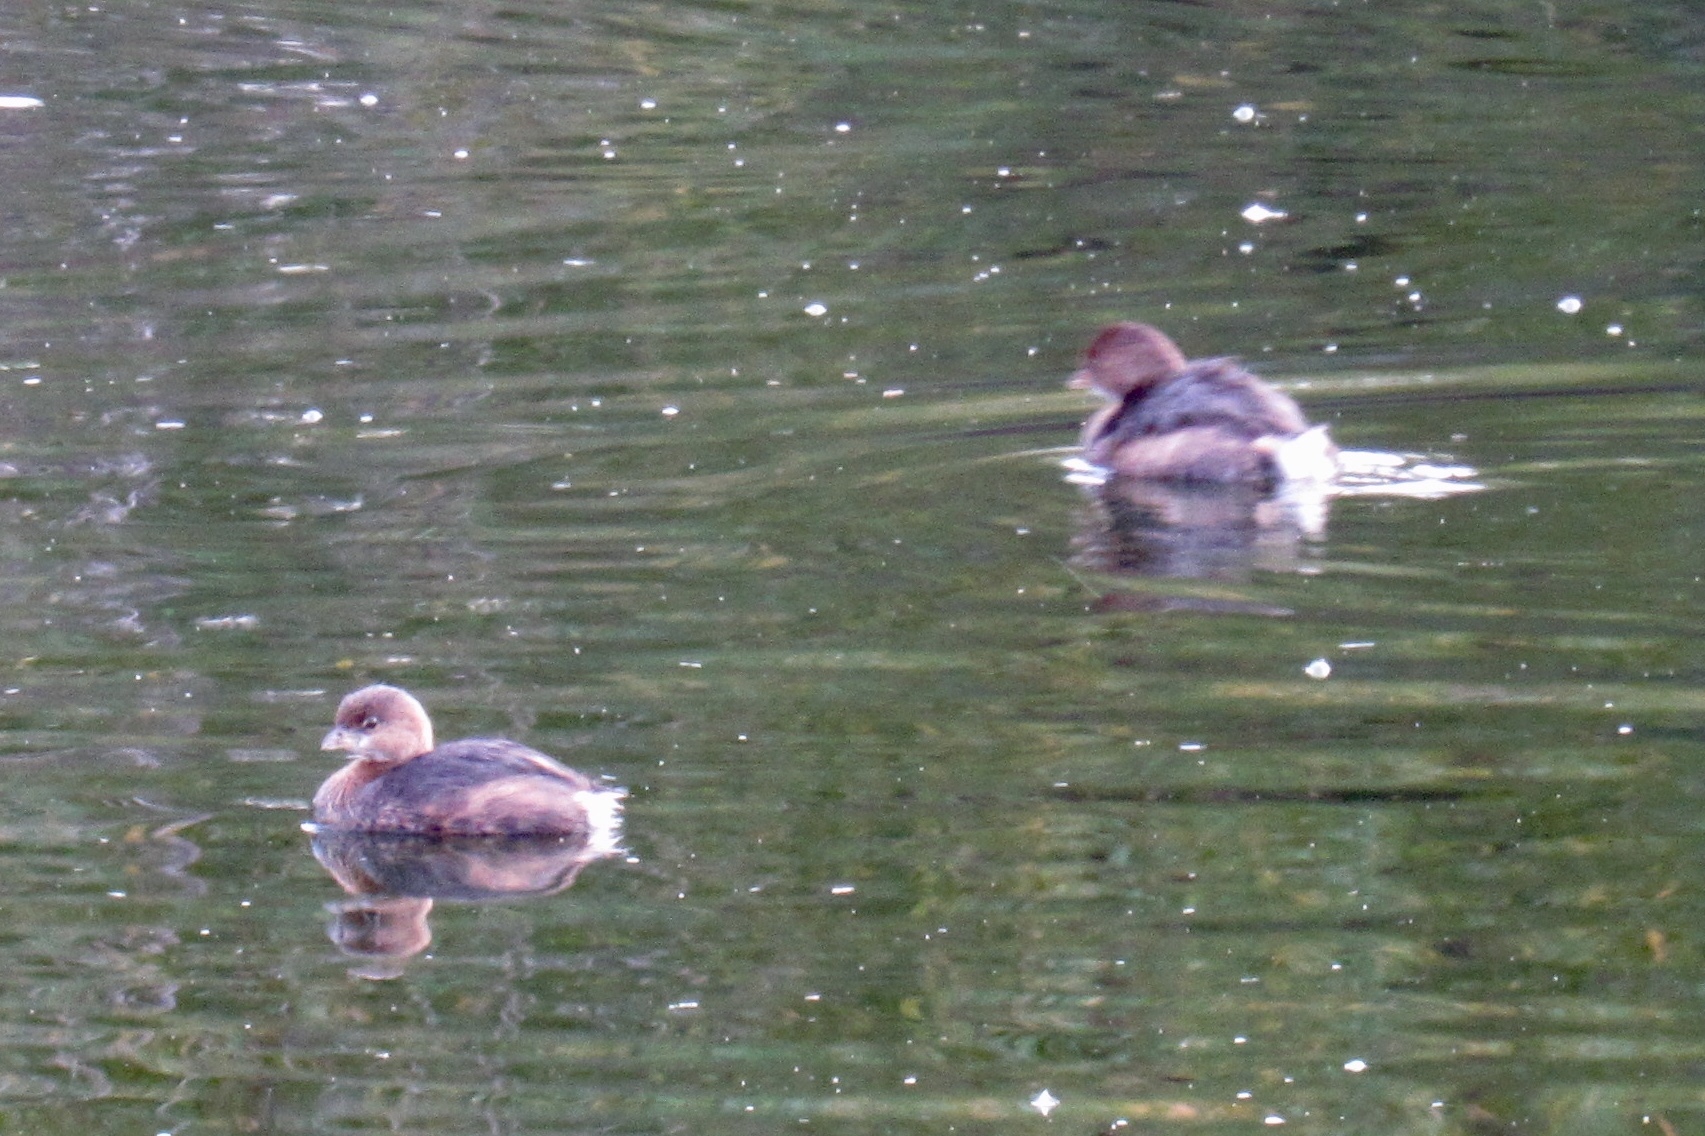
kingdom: Animalia
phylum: Chordata
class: Aves
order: Podicipediformes
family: Podicipedidae
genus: Podilymbus
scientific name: Podilymbus podiceps
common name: Pied-billed grebe
